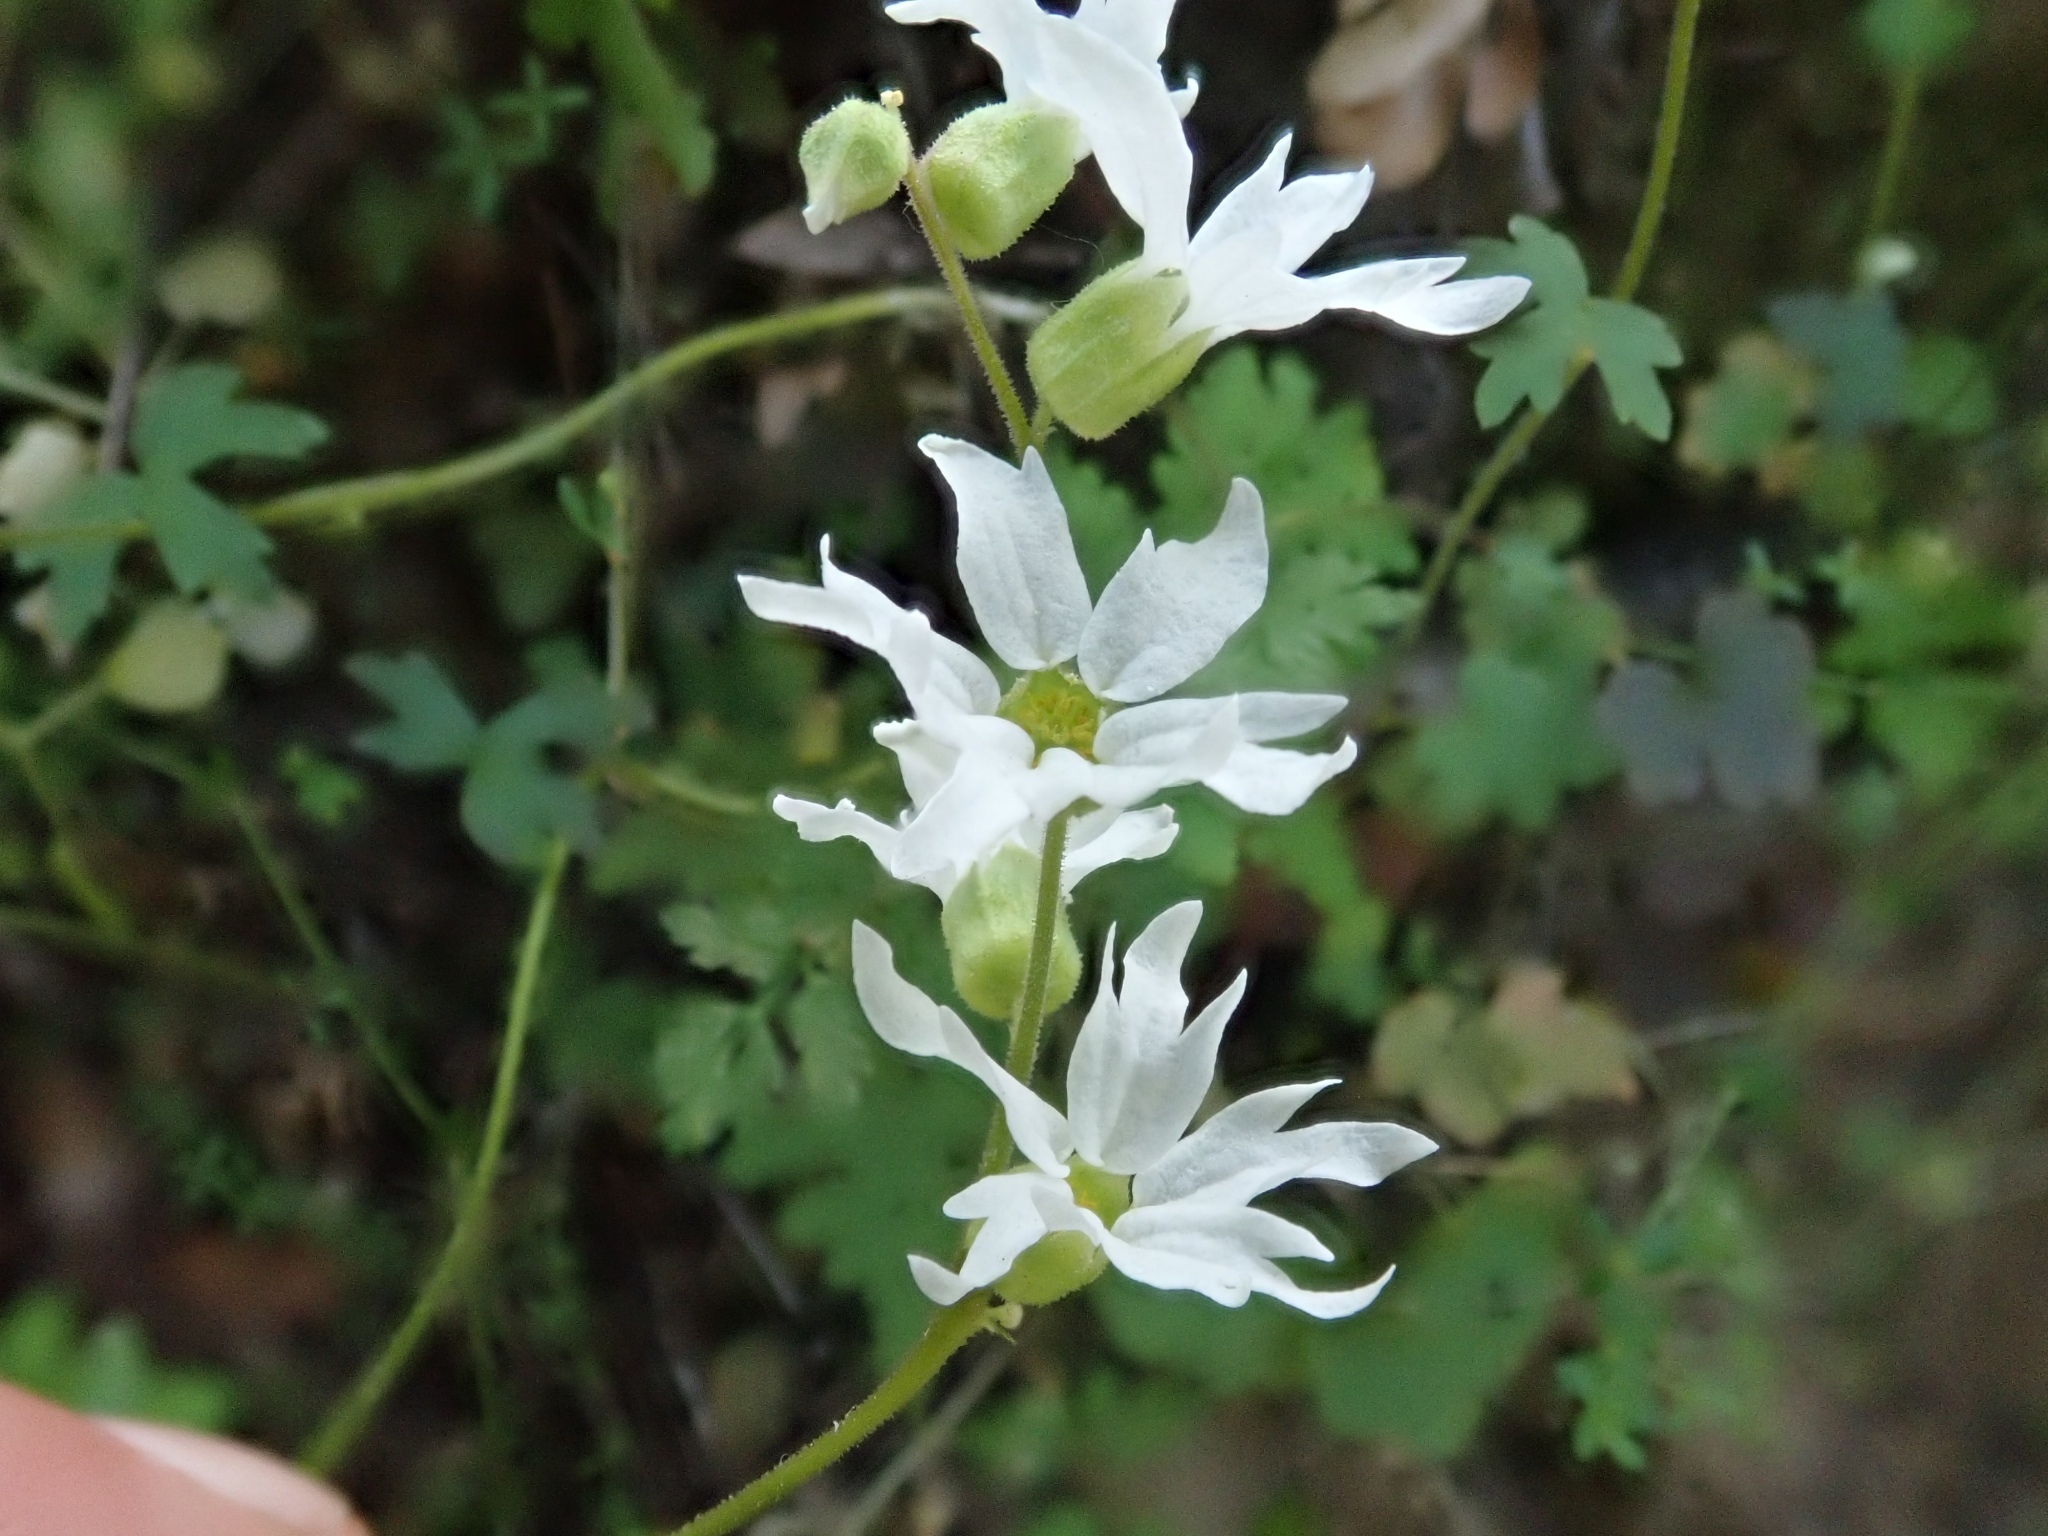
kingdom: Plantae
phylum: Tracheophyta
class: Magnoliopsida
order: Saxifragales
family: Saxifragaceae
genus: Lithophragma
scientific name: Lithophragma heterophyllum
